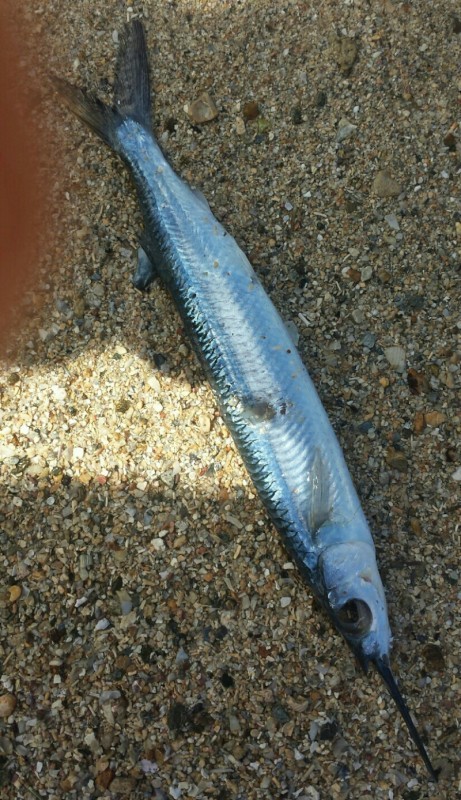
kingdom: Animalia
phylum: Chordata
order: Beloniformes
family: Hemiramphidae
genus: Hemiramphus
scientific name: Hemiramphus brasiliensis
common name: Ballyhoo
